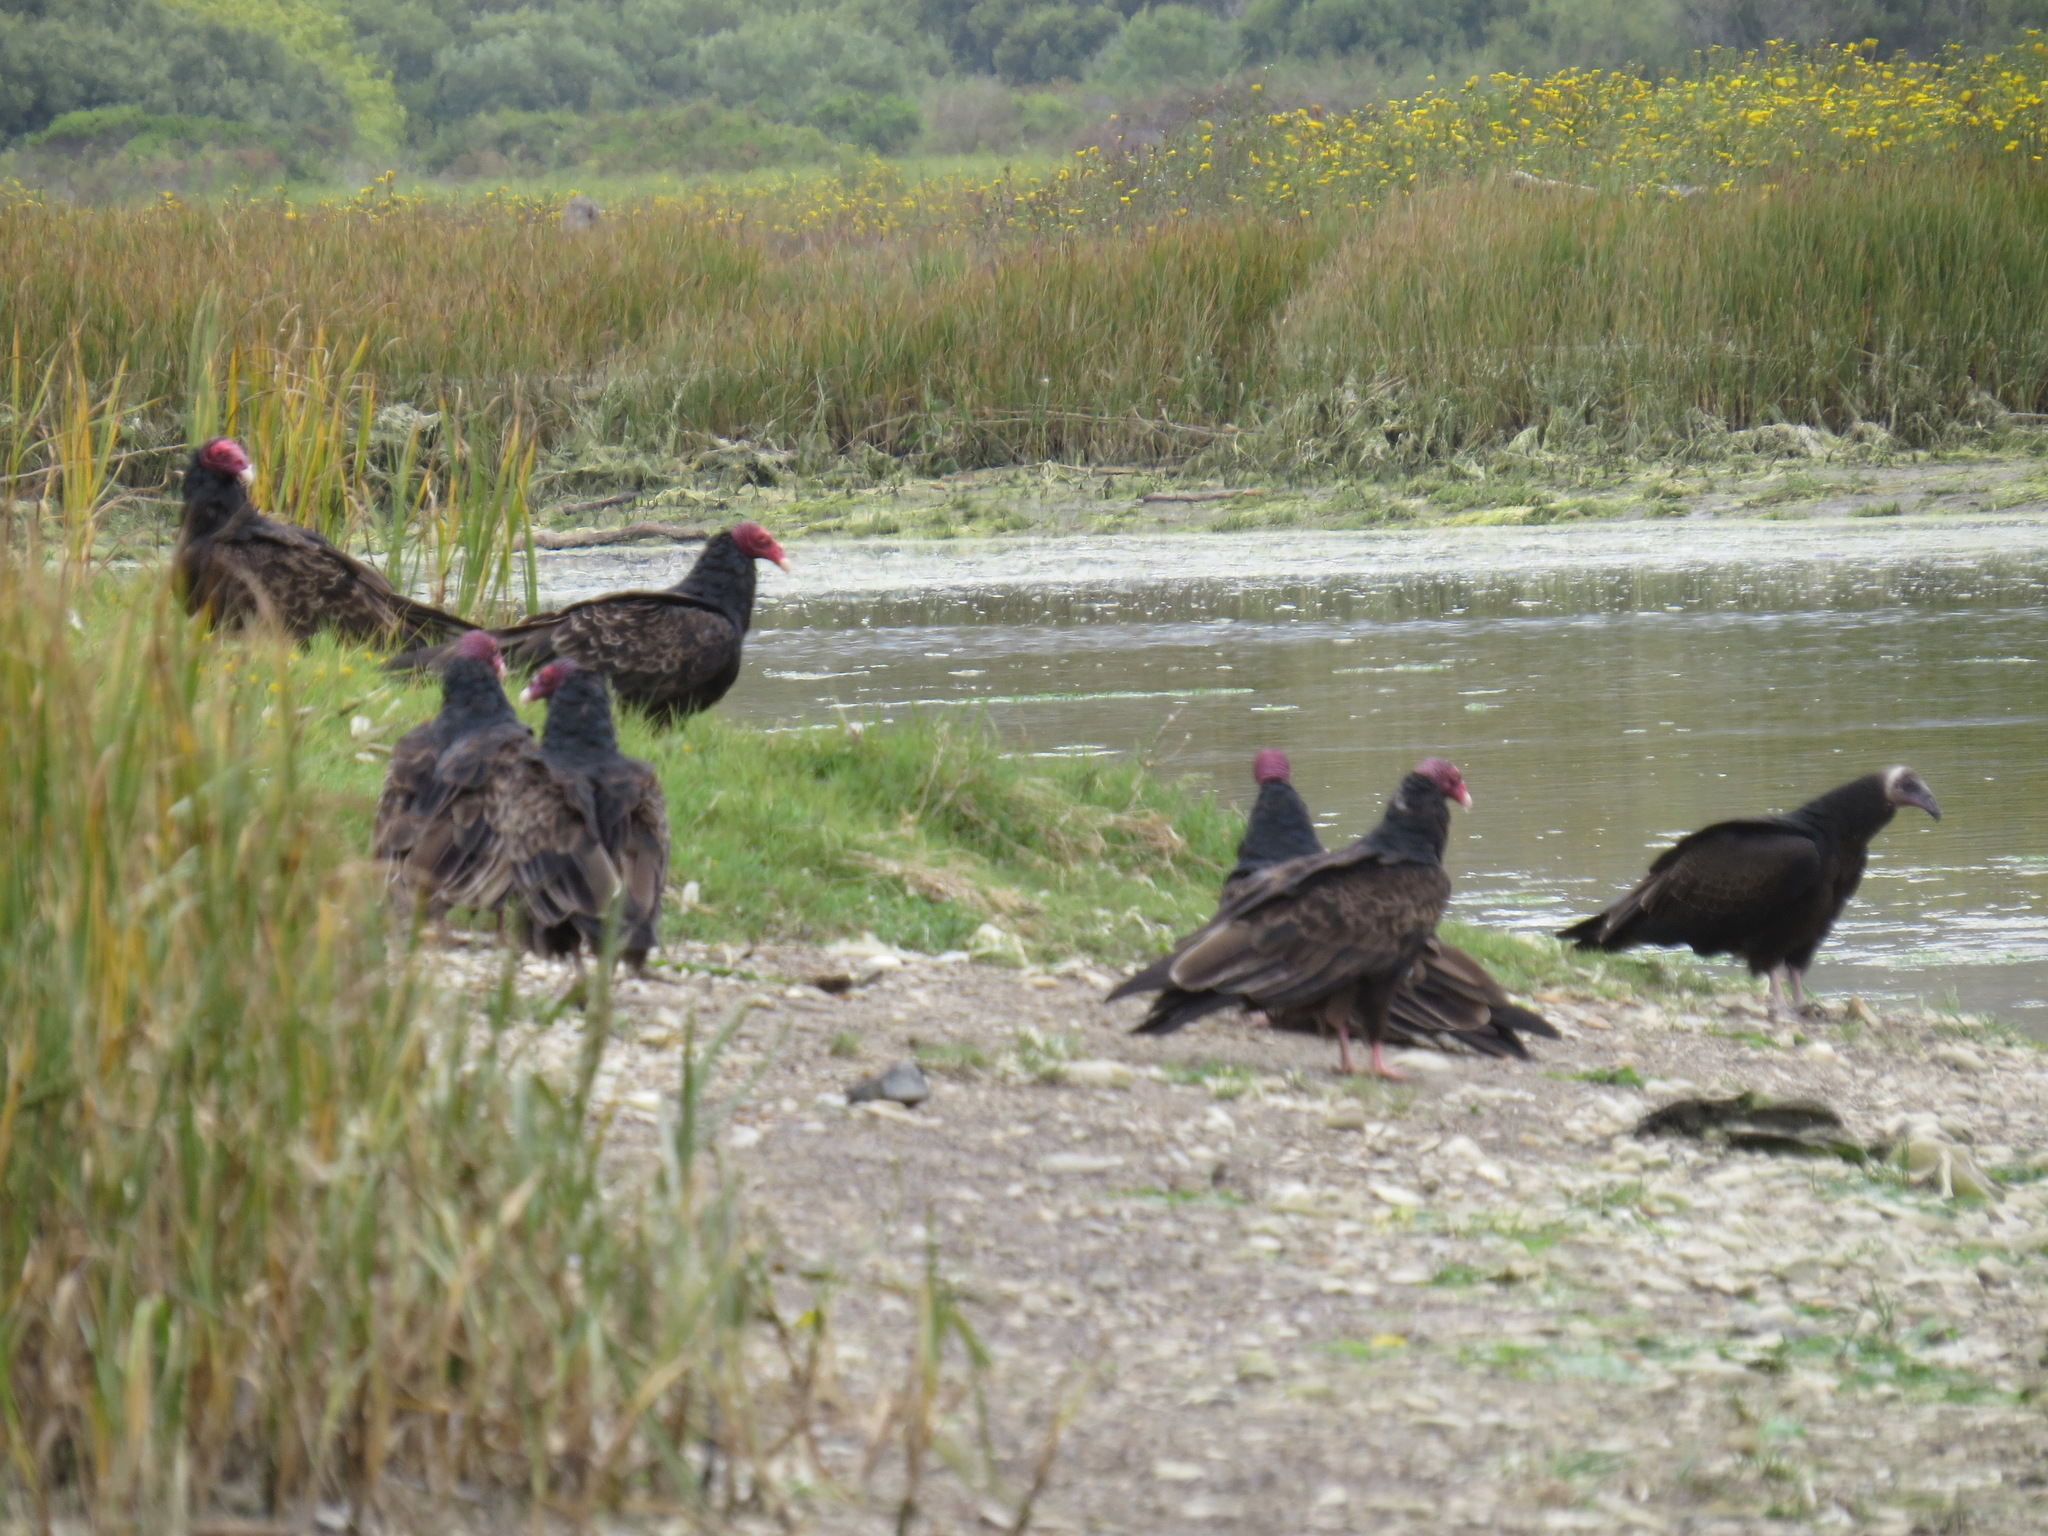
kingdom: Animalia
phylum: Chordata
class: Aves
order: Accipitriformes
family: Cathartidae
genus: Cathartes
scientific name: Cathartes aura
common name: Turkey vulture
